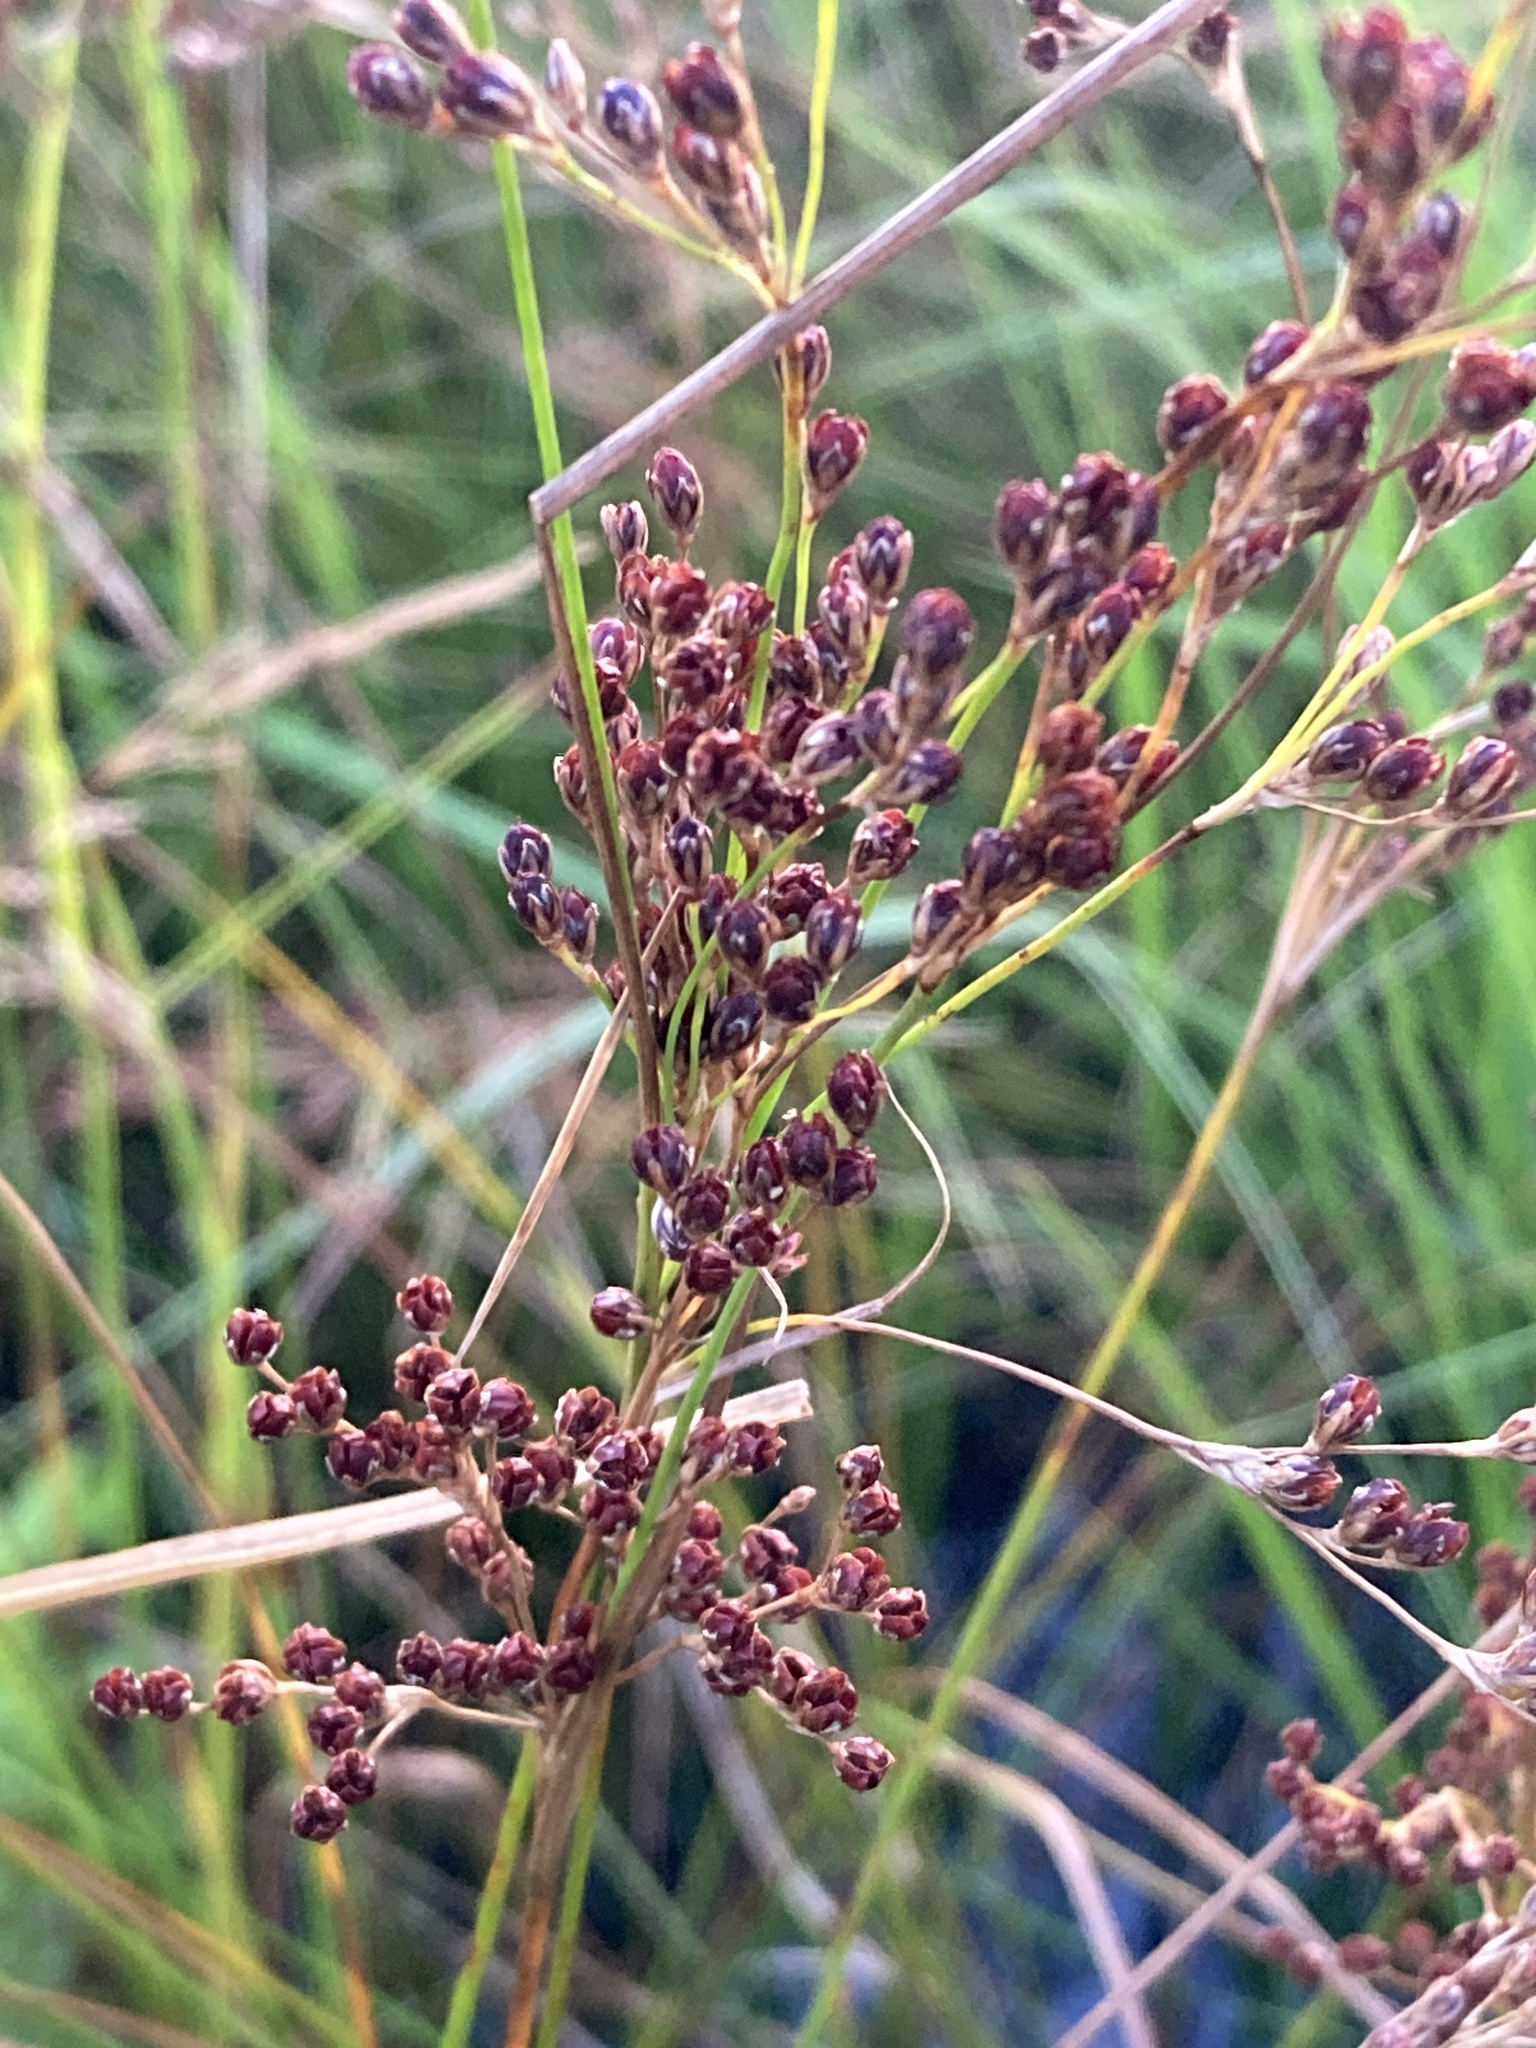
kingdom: Plantae
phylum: Tracheophyta
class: Liliopsida
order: Poales
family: Juncaceae
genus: Juncus
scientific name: Juncus compressus
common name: Round-fruited rush
